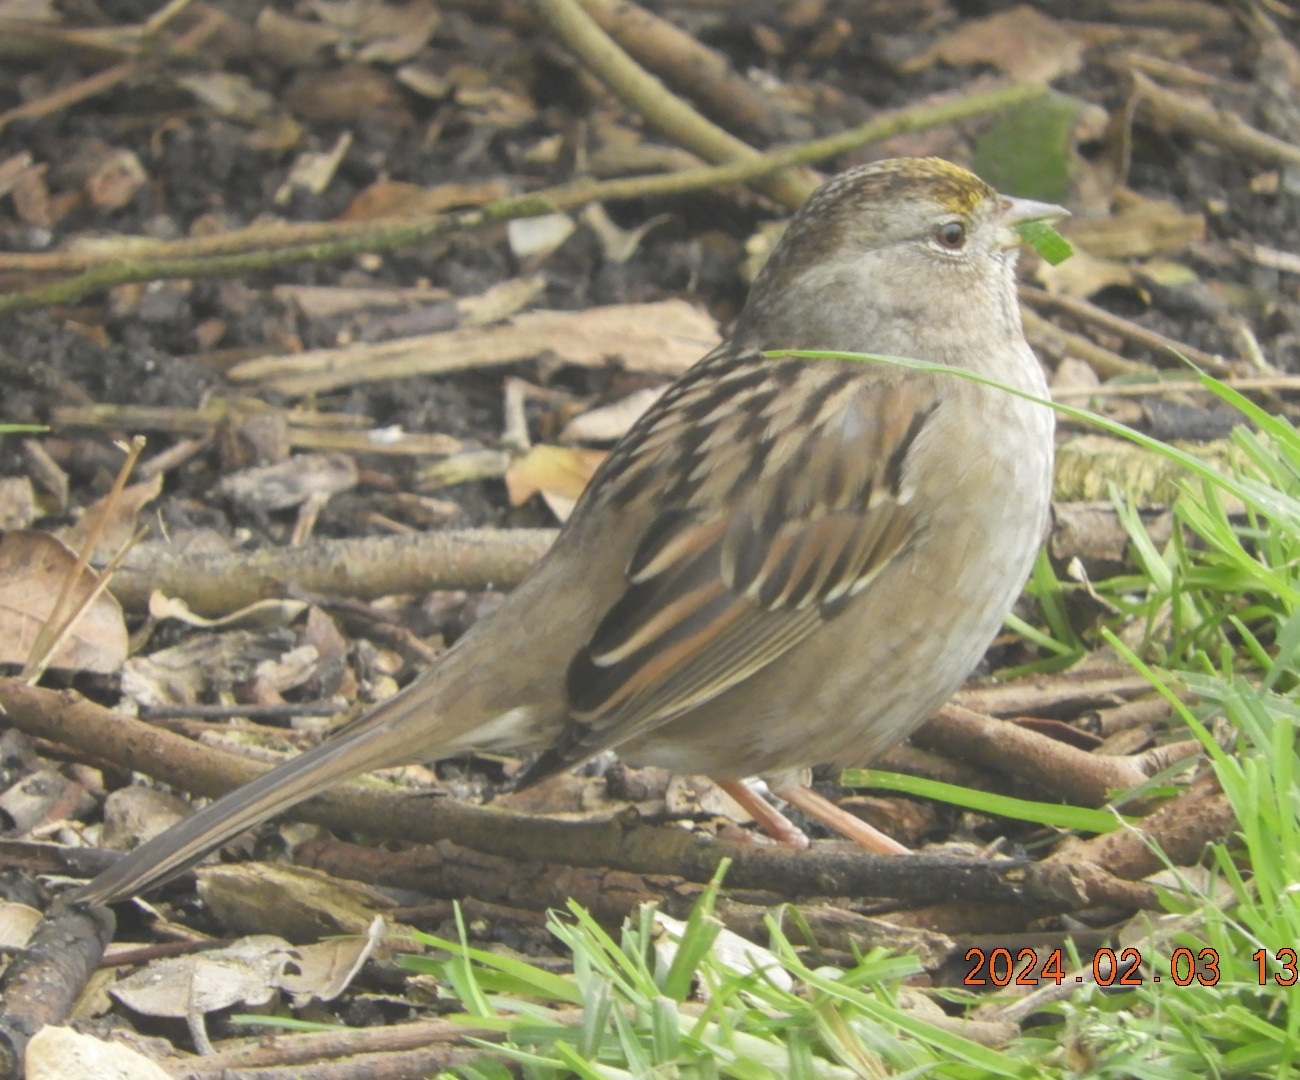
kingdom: Animalia
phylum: Chordata
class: Aves
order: Passeriformes
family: Passerellidae
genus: Zonotrichia
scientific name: Zonotrichia atricapilla
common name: Golden-crowned sparrow
